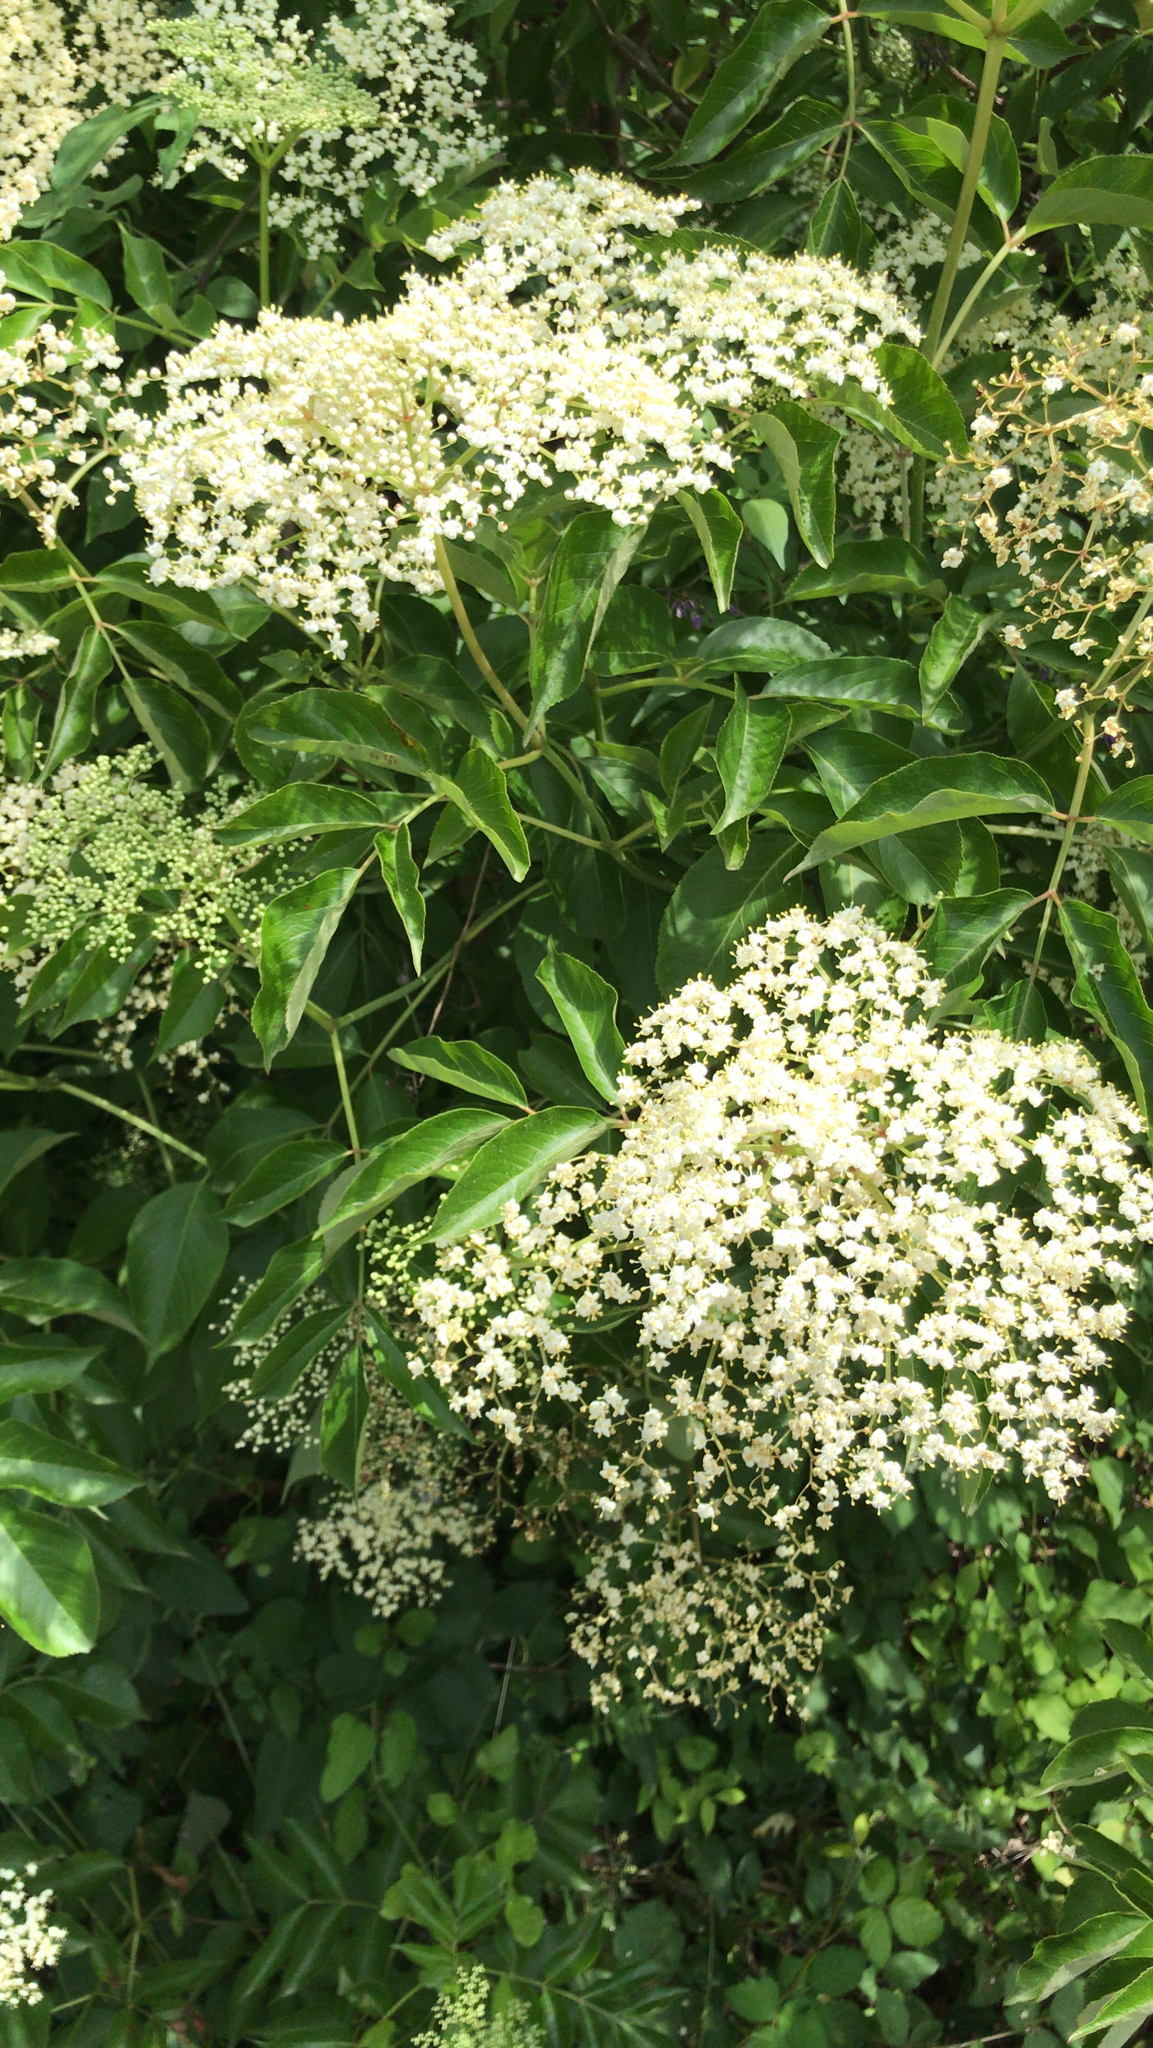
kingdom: Plantae
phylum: Tracheophyta
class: Magnoliopsida
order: Dipsacales
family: Viburnaceae
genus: Sambucus
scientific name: Sambucus canadensis
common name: American elder
